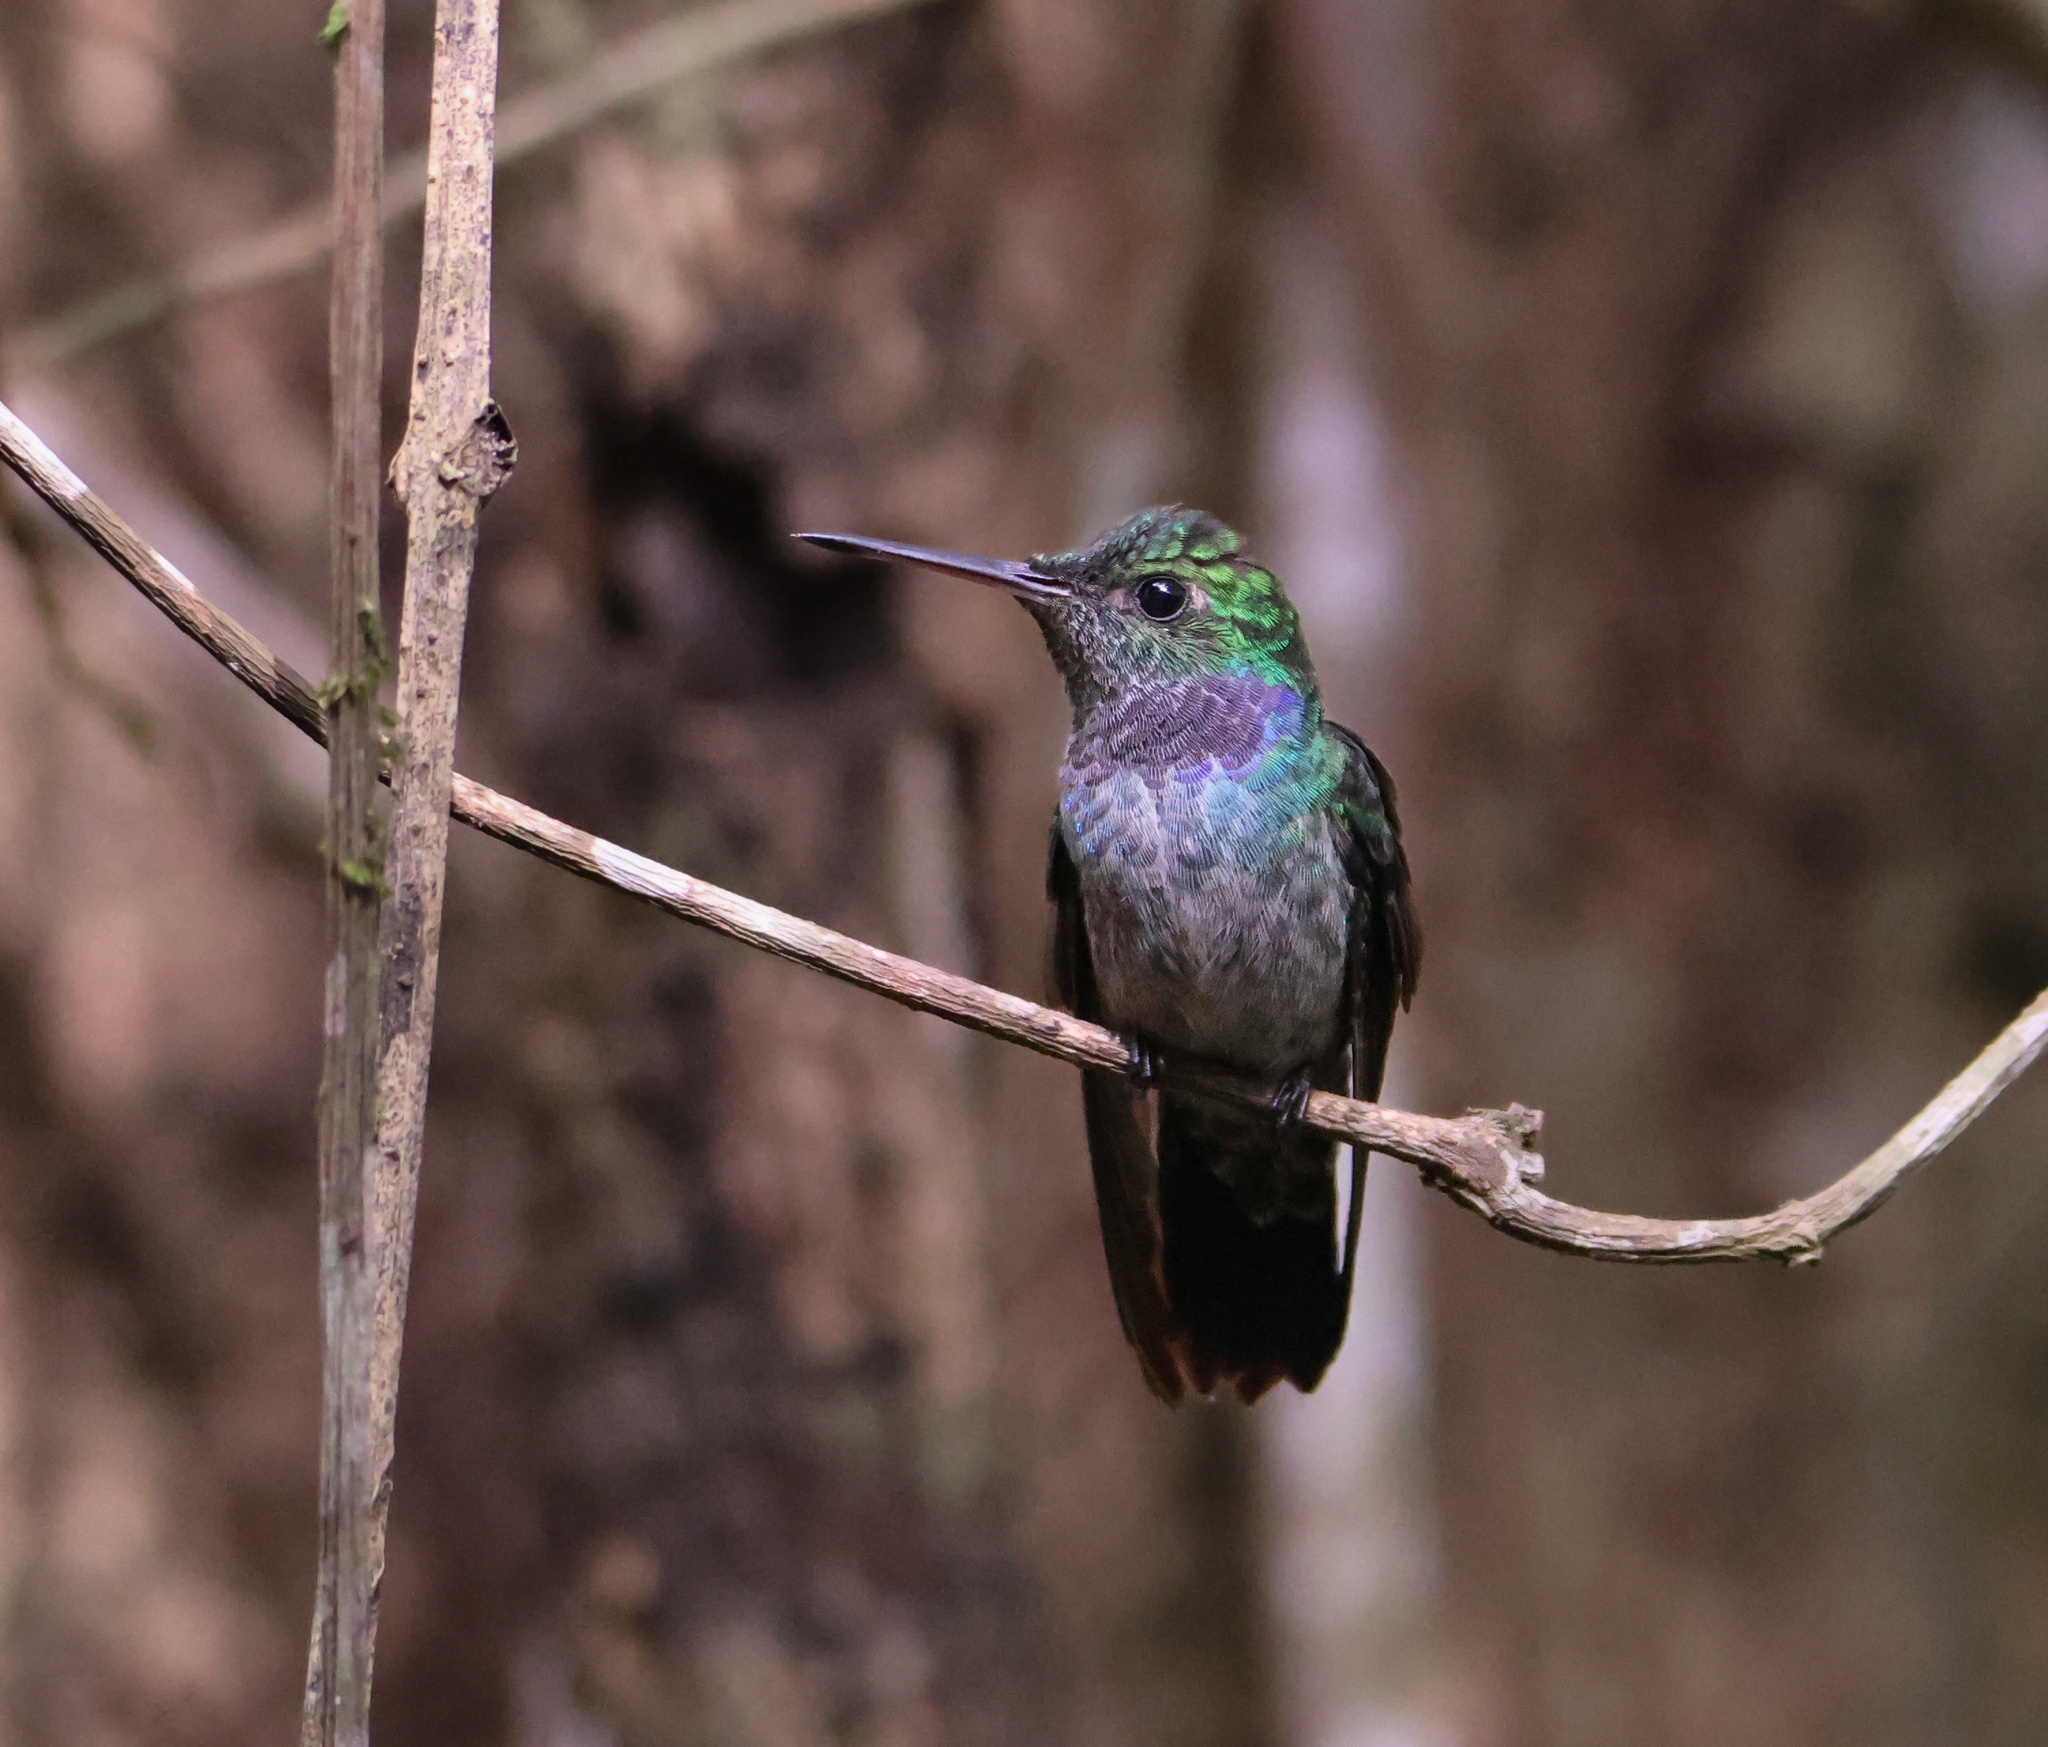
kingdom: Animalia
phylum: Chordata
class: Aves
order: Apodiformes
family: Trochilidae
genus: Polyerata
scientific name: Polyerata amabilis
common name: Blue-chested hummingbird
